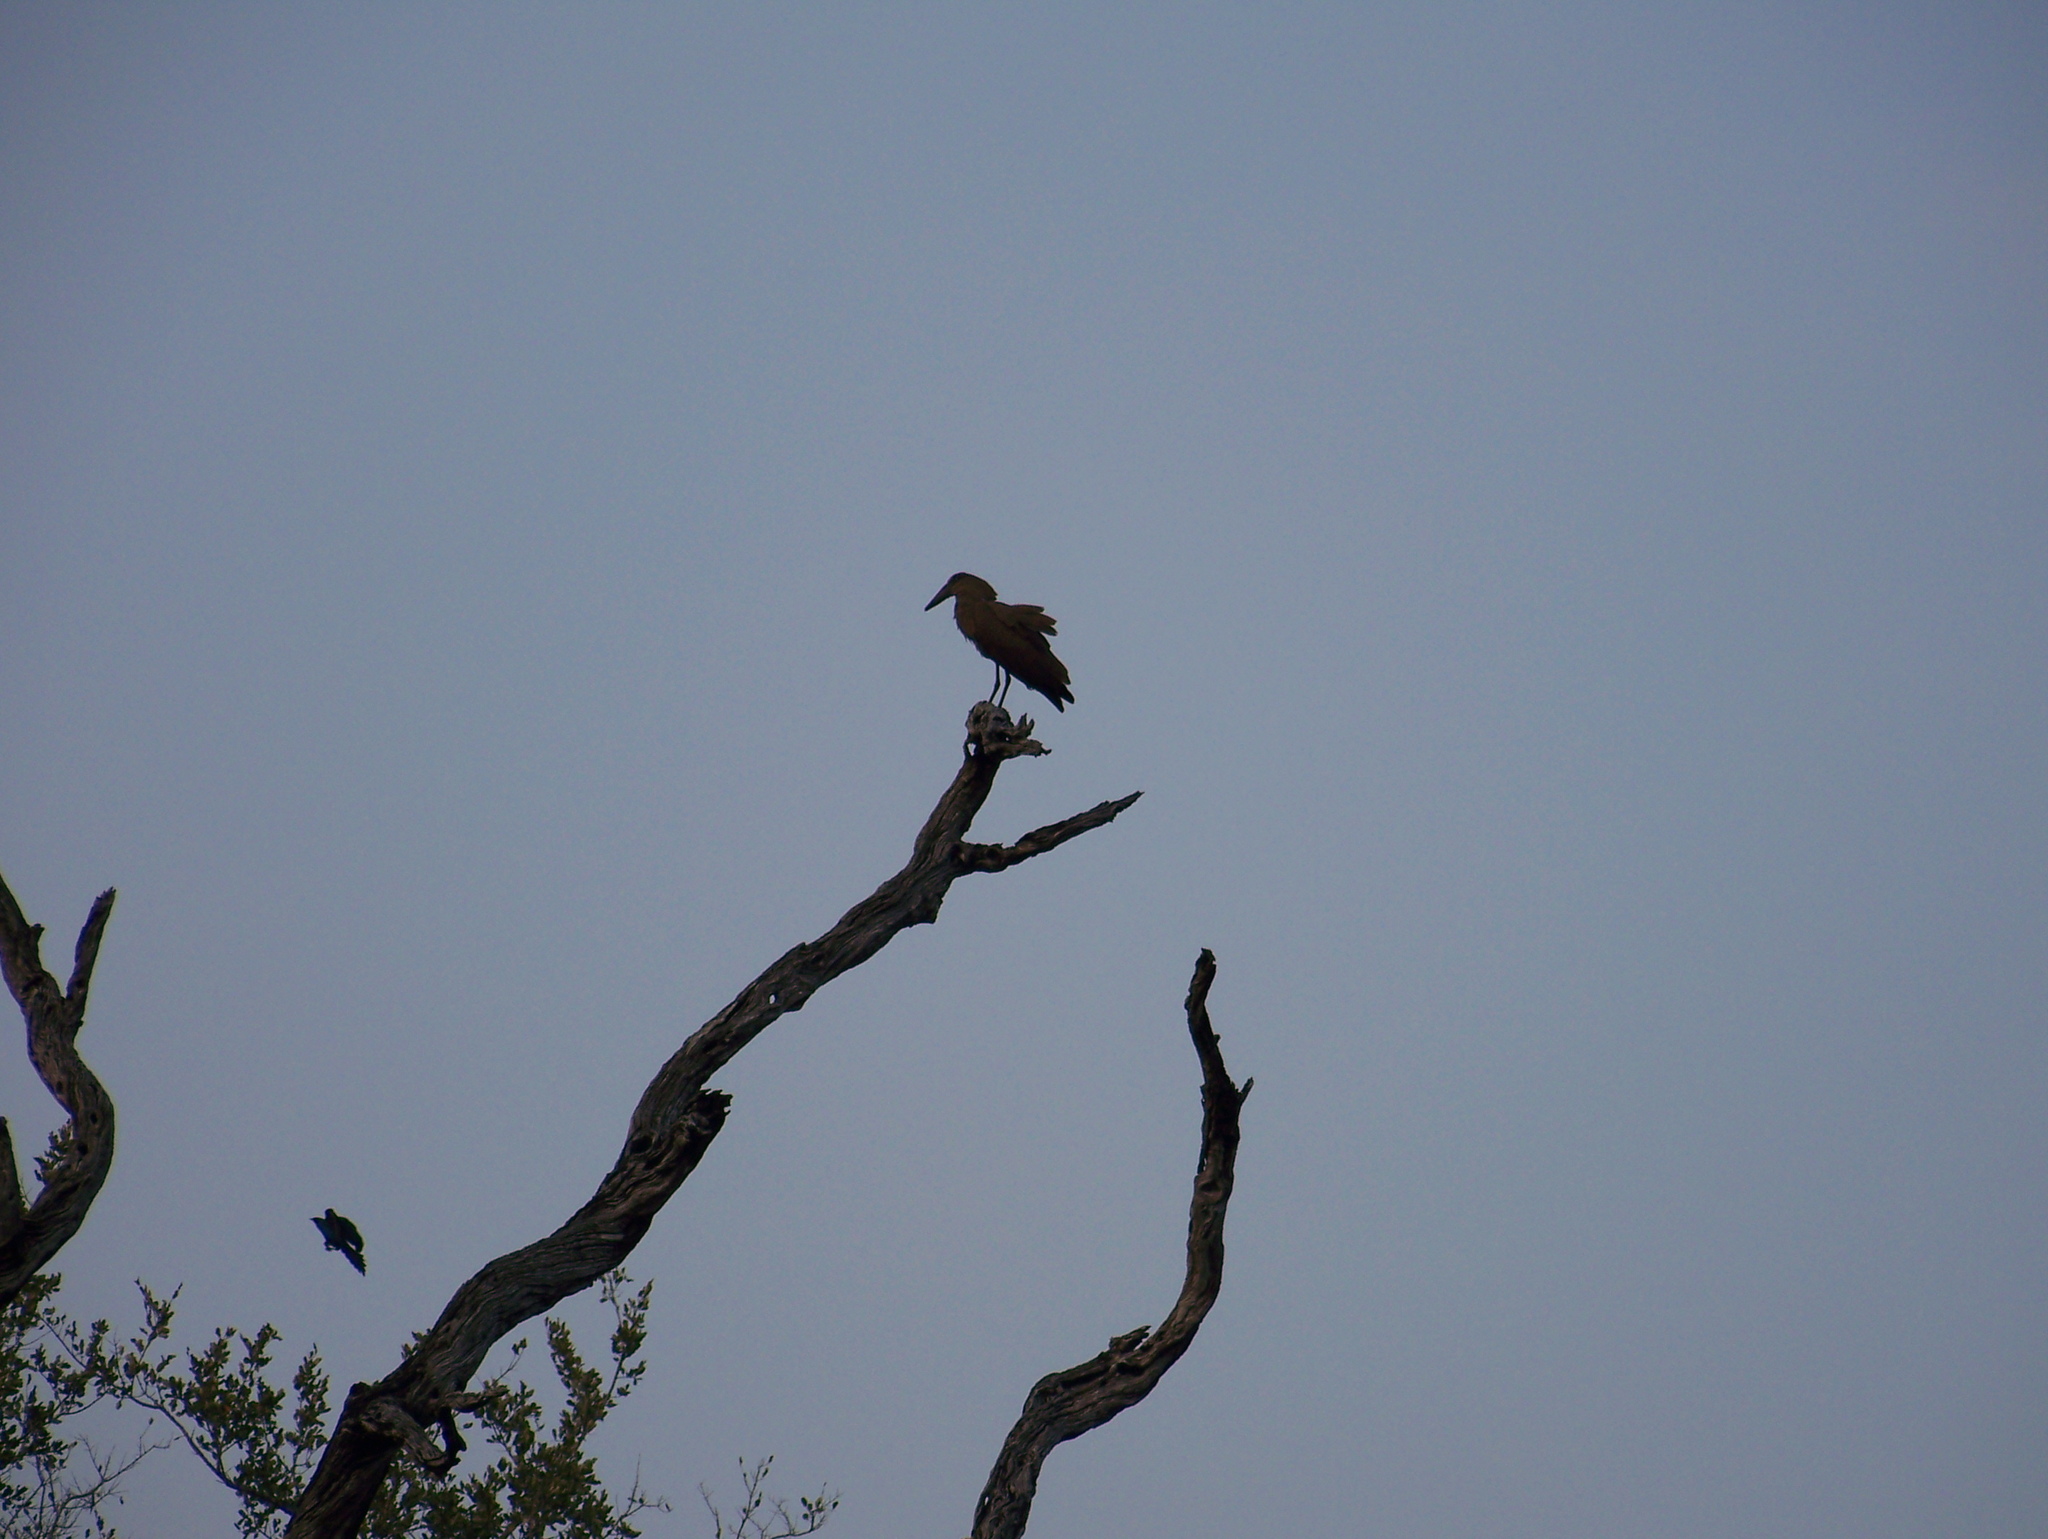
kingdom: Animalia
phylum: Chordata
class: Aves
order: Pelecaniformes
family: Scopidae
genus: Scopus
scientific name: Scopus umbretta
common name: Hamerkop
